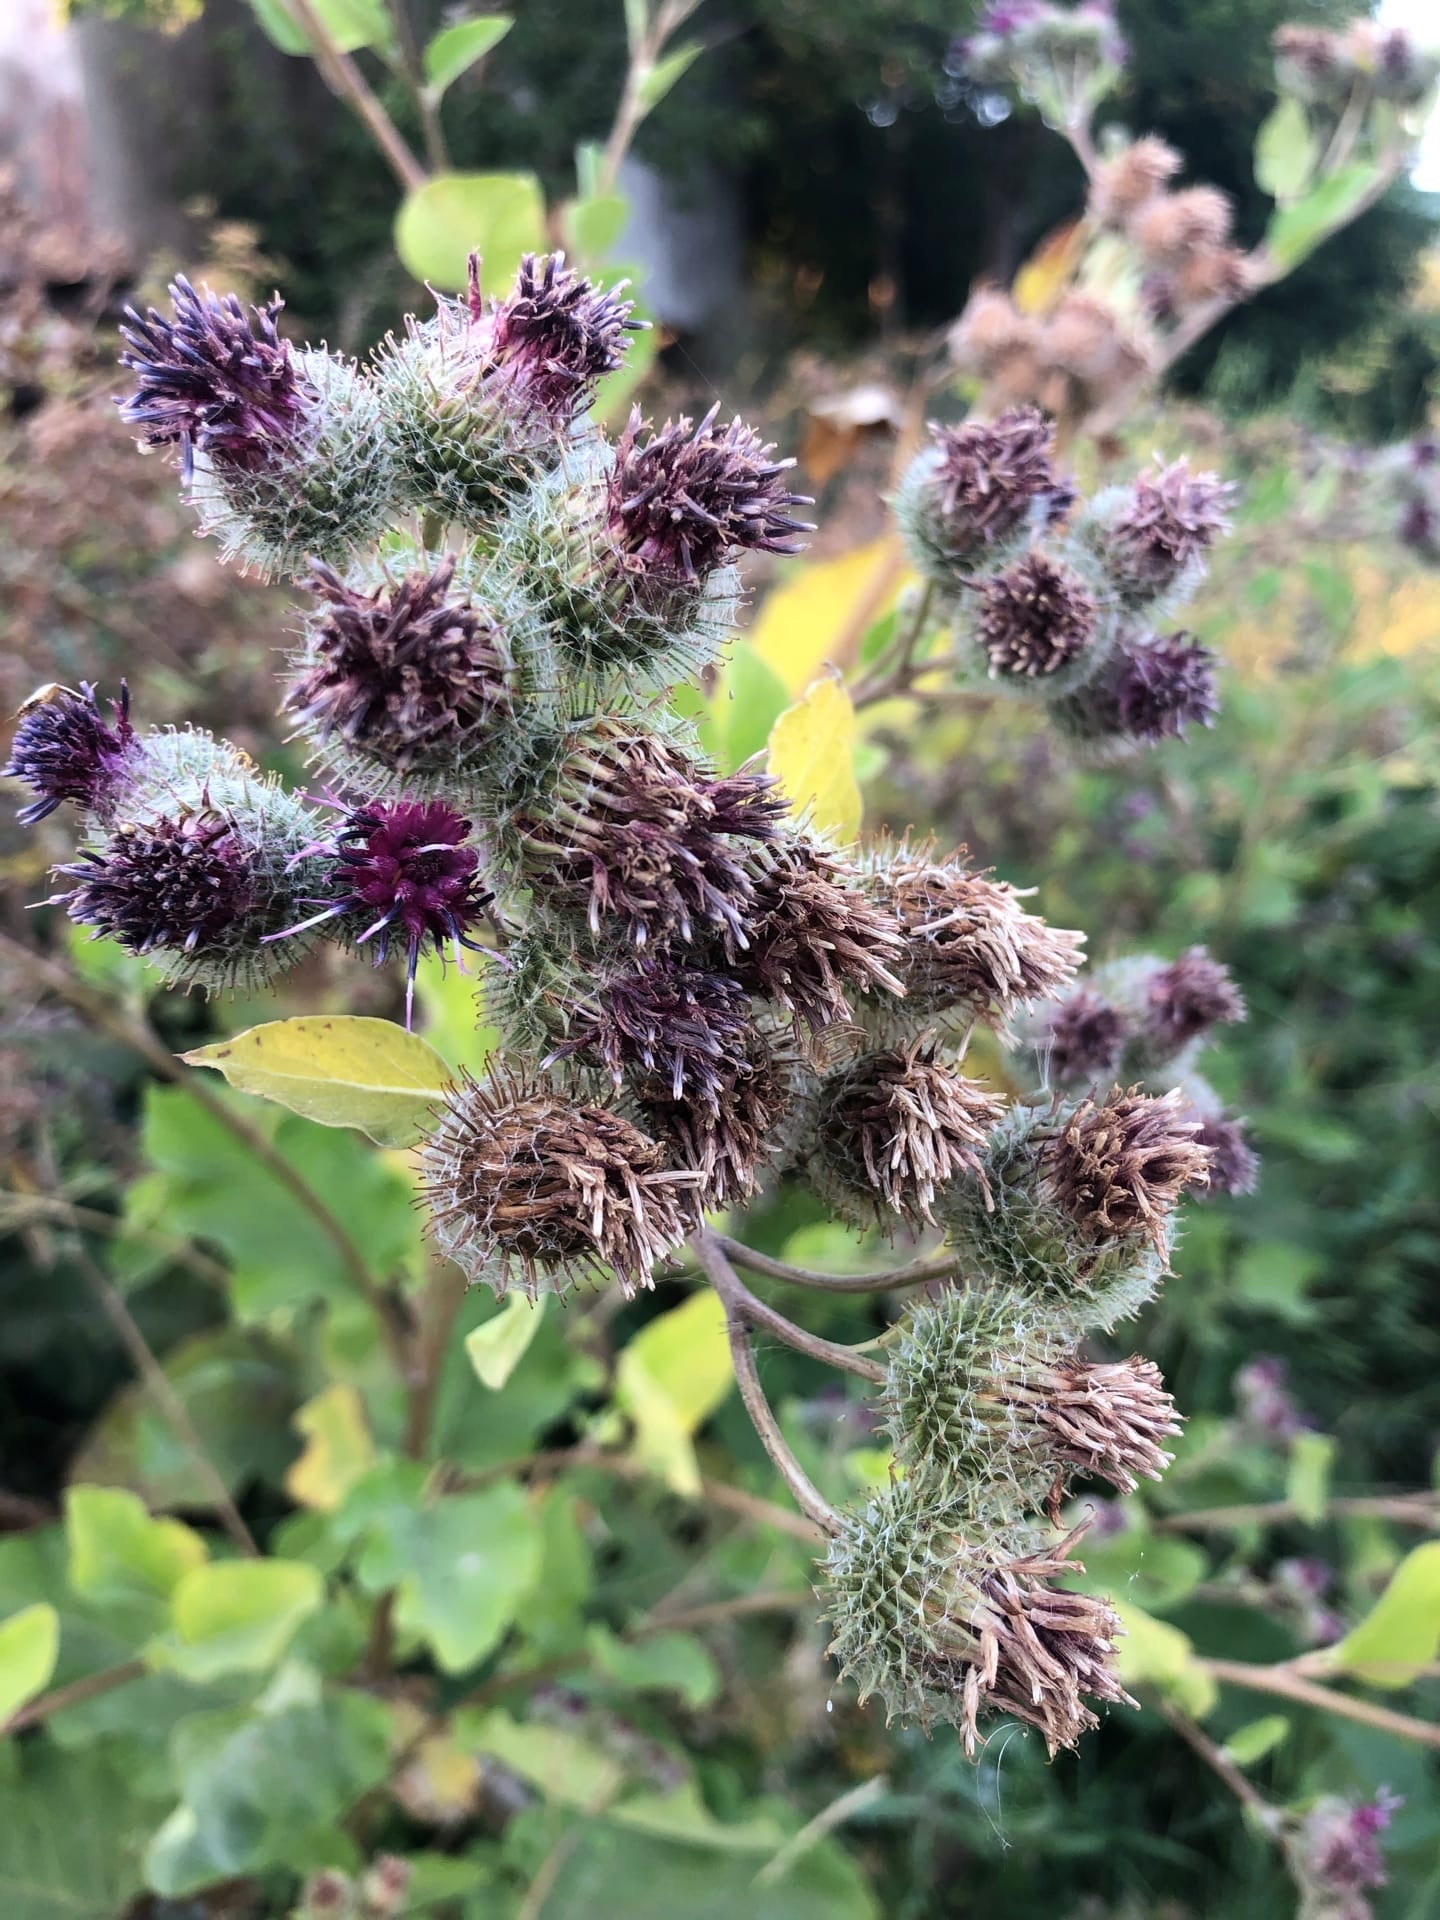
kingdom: Plantae
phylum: Tracheophyta
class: Magnoliopsida
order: Asterales
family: Asteraceae
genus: Arctium
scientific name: Arctium tomentosum
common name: Woolly burdock
